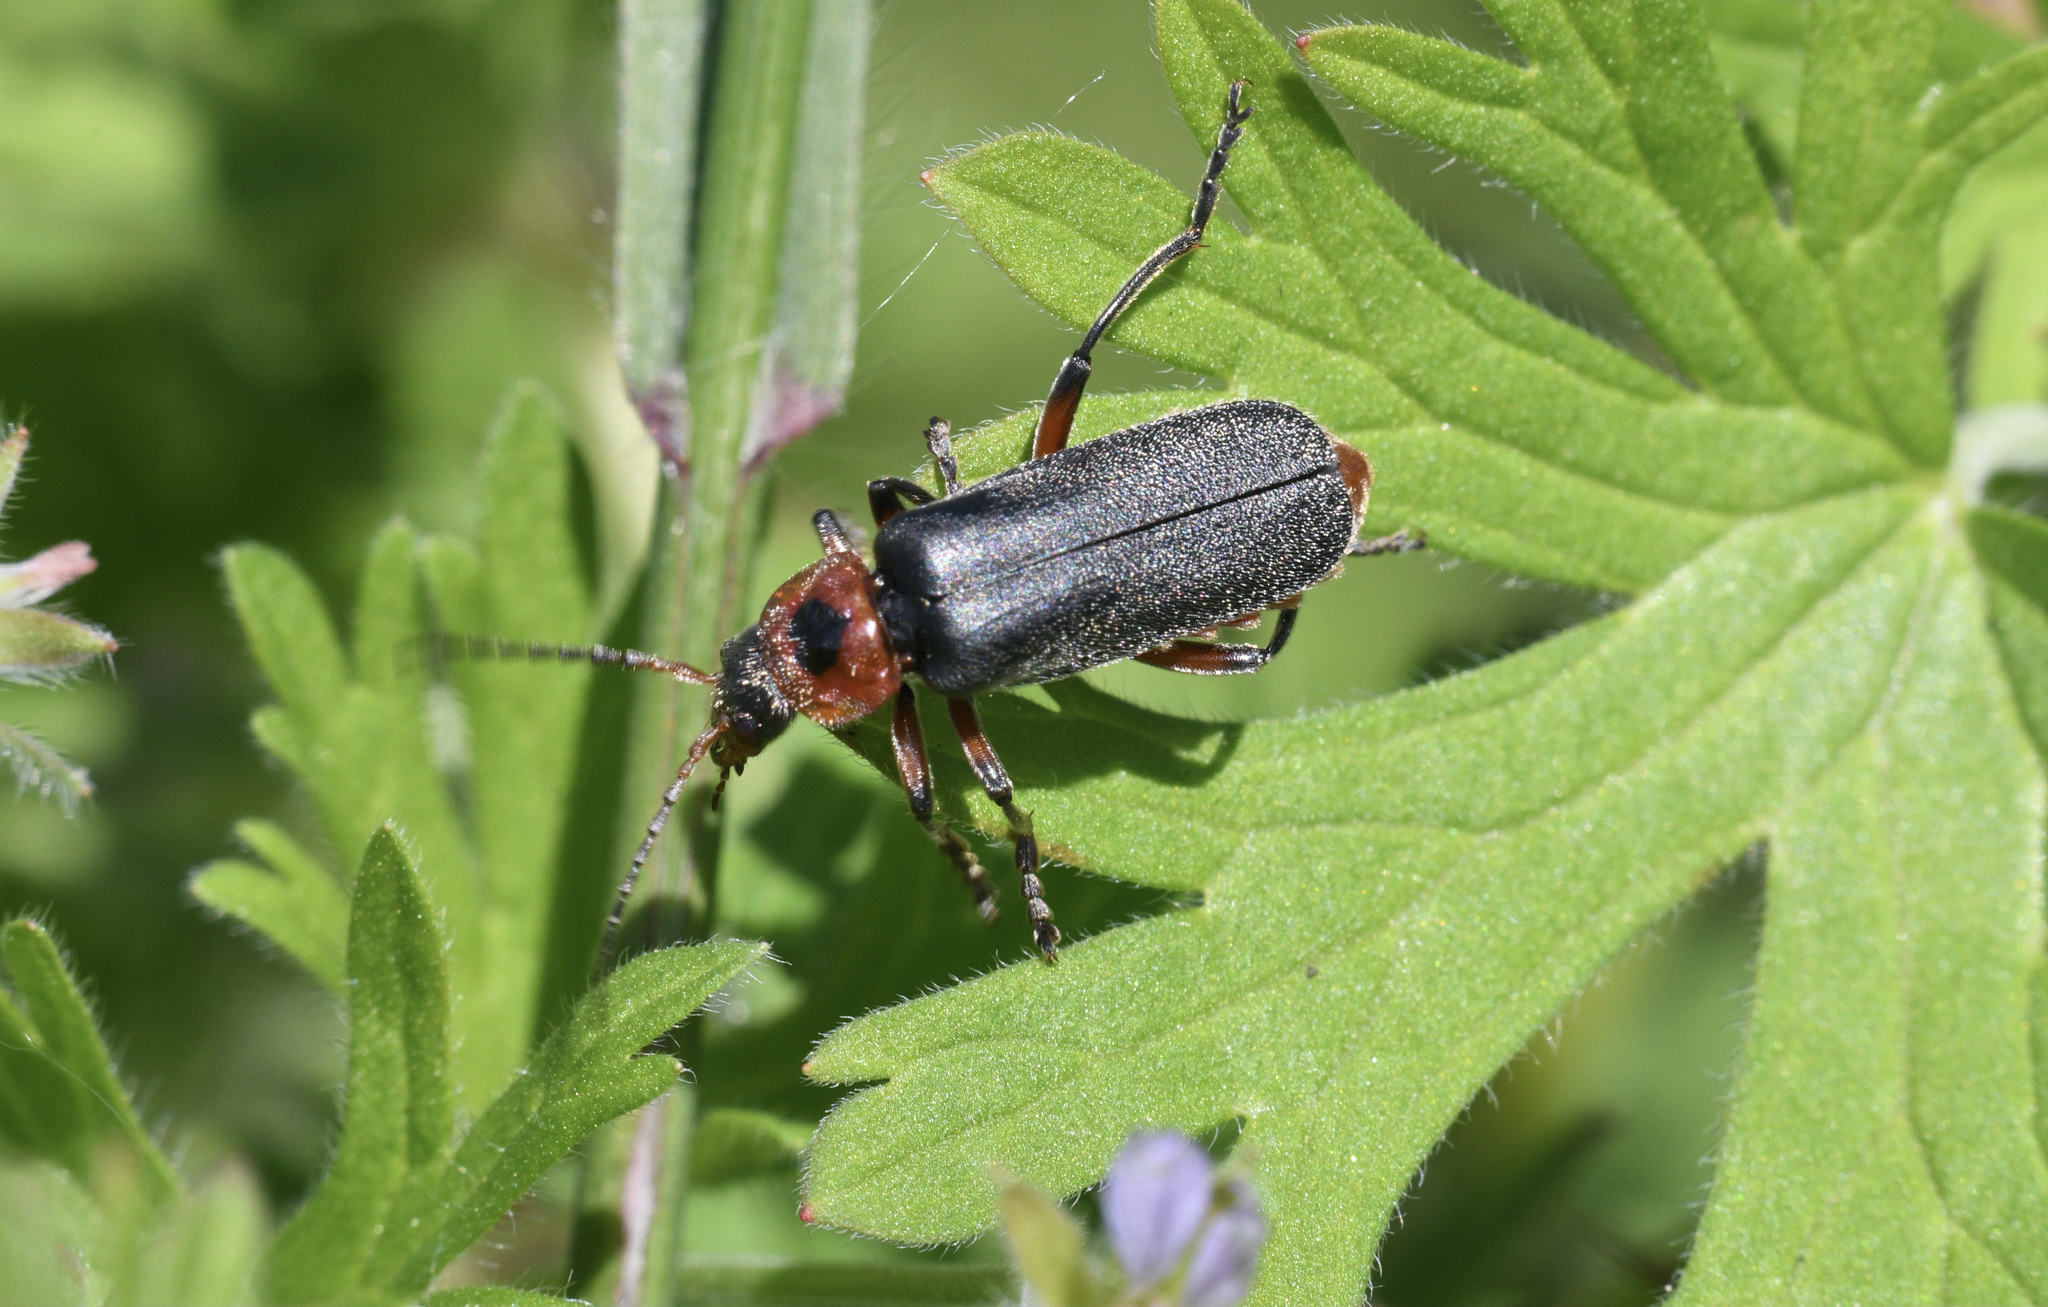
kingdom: Animalia
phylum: Arthropoda
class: Insecta
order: Coleoptera
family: Cantharidae
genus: Cantharis
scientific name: Cantharis rustica
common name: Soldier beetle
